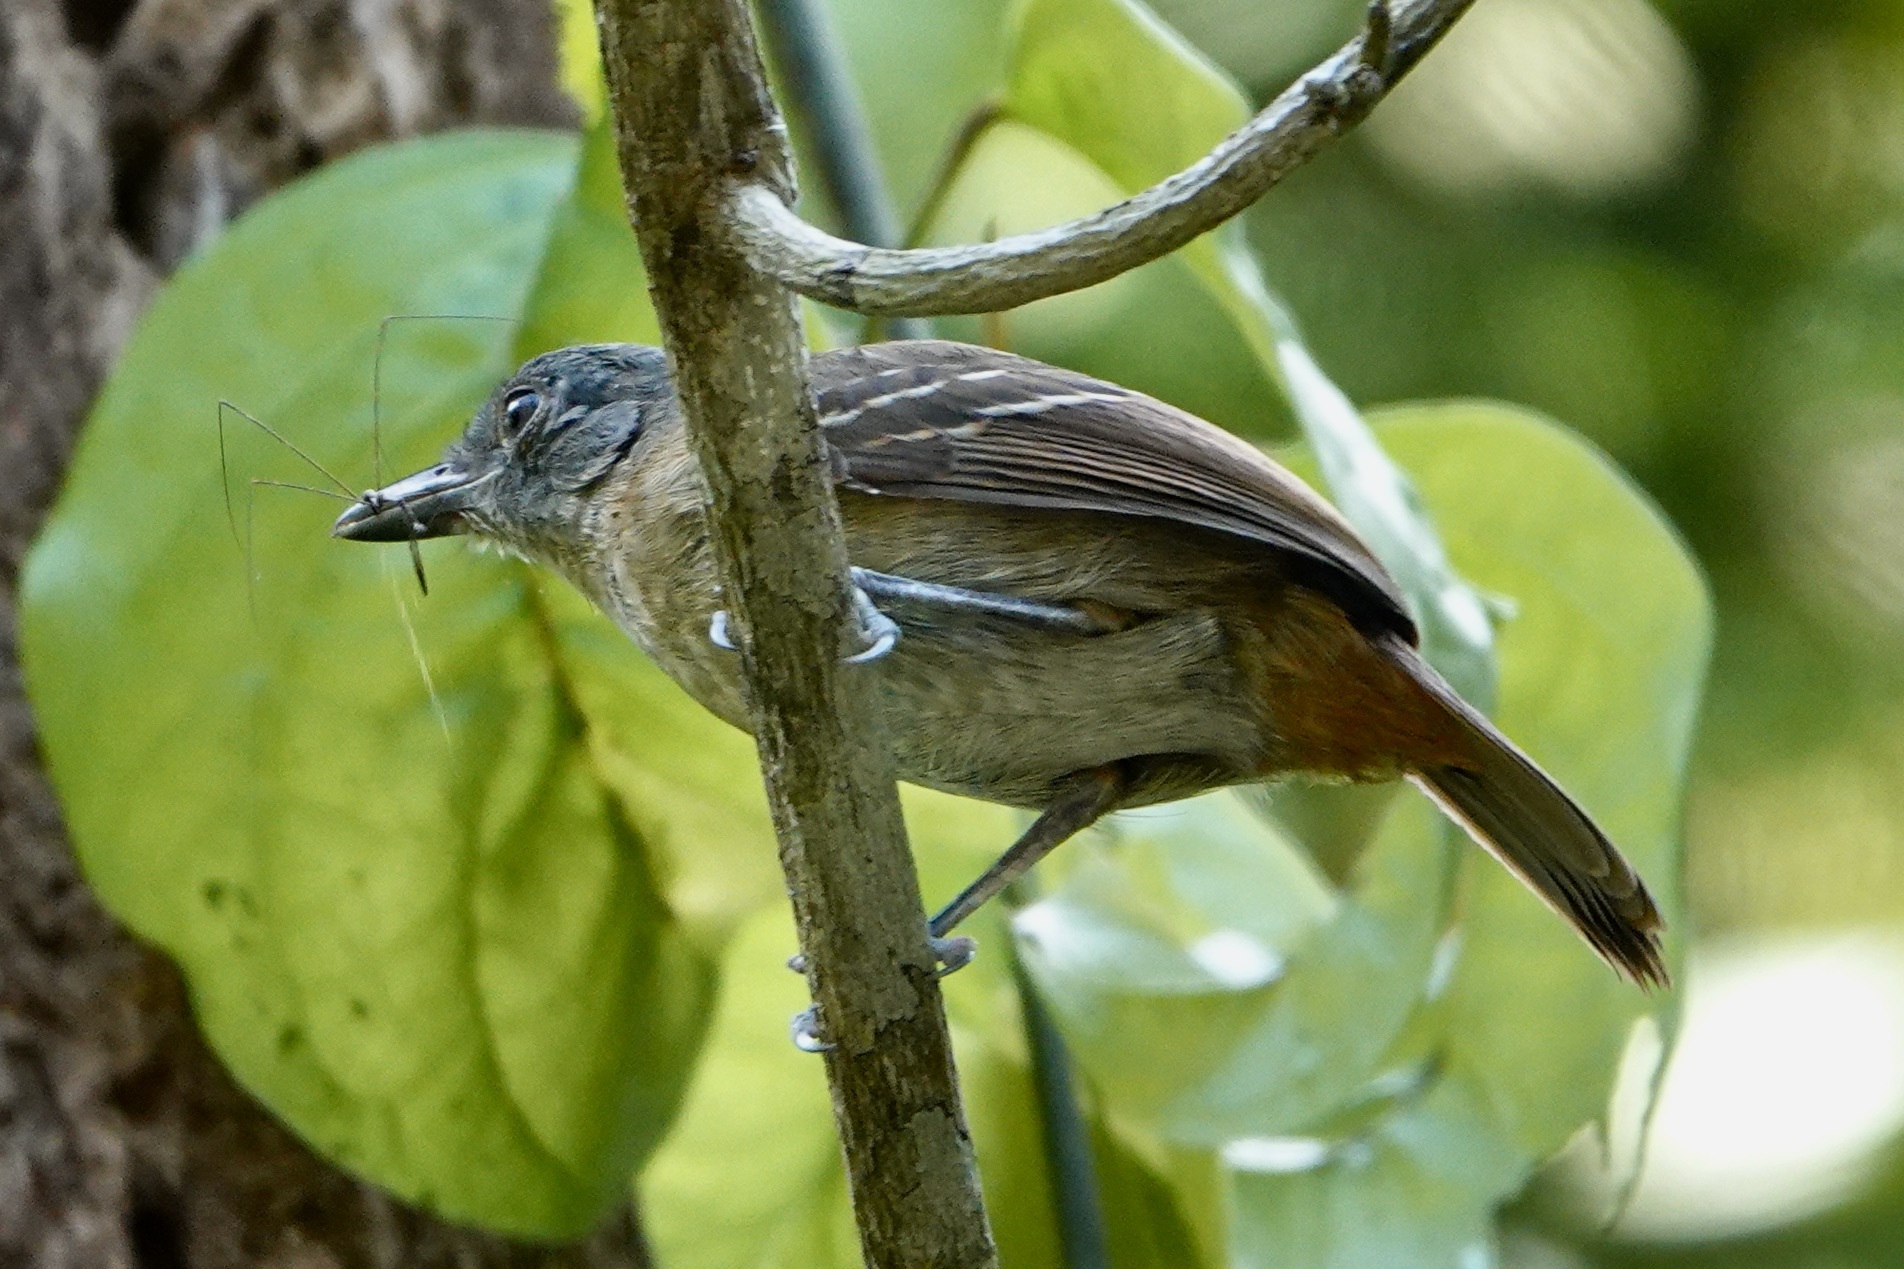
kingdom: Animalia
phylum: Chordata
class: Aves
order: Passeriformes
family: Thamnophilidae
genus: Thamnophilus
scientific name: Thamnophilus murinus
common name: Mouse-colored antshrike
